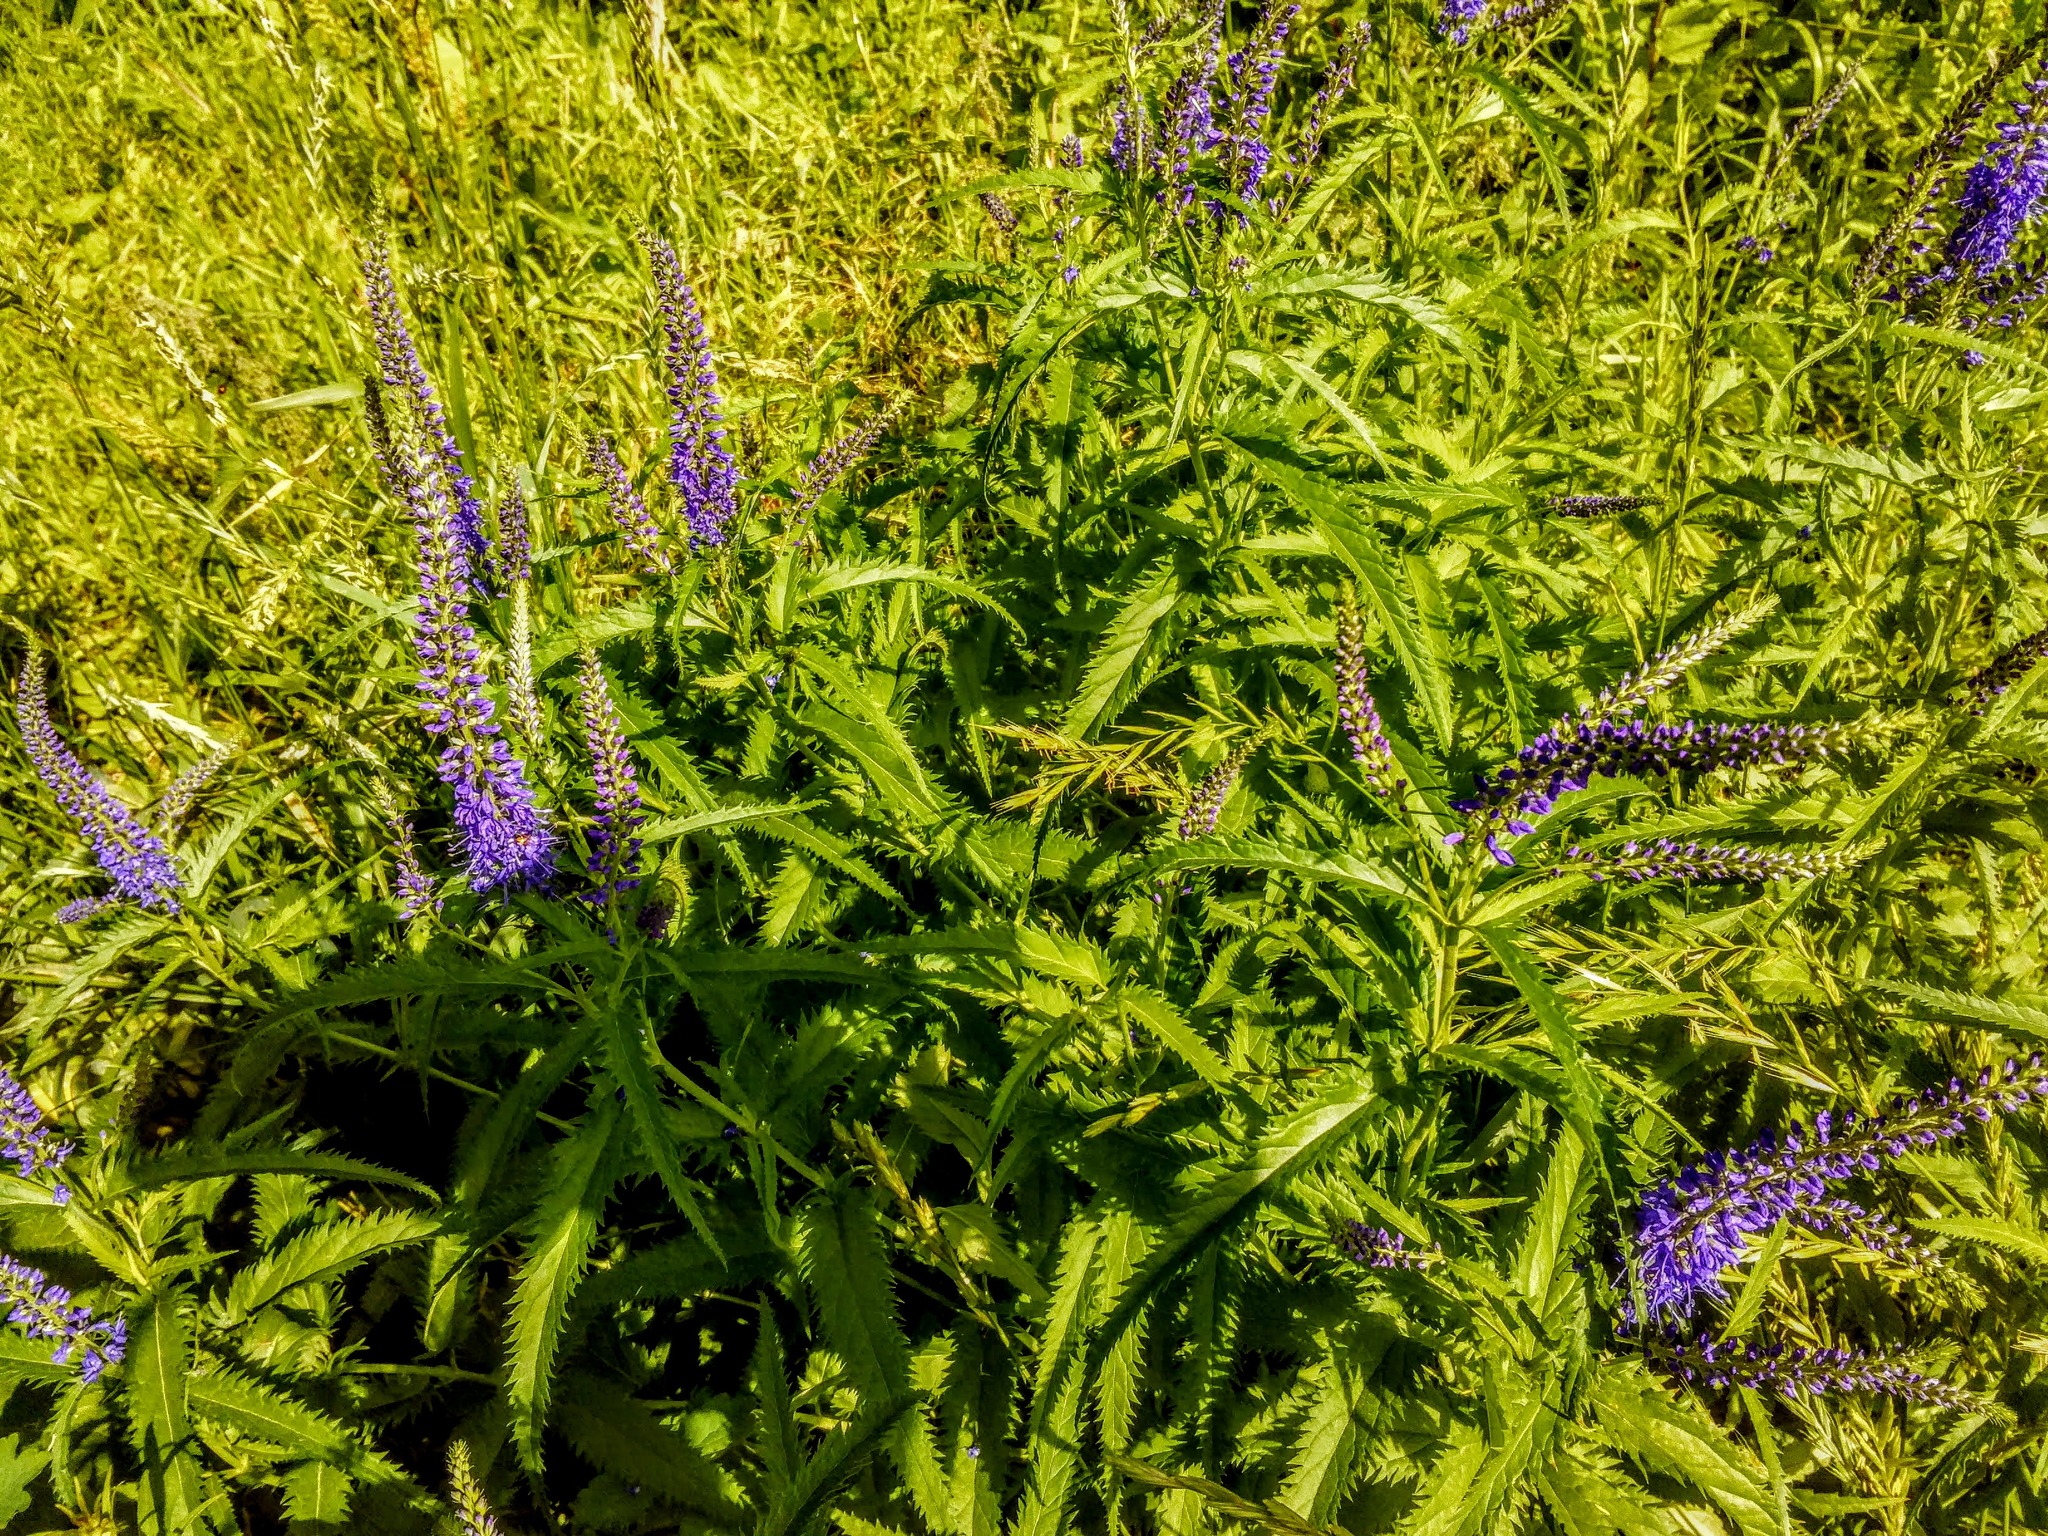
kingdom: Plantae
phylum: Tracheophyta
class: Magnoliopsida
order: Lamiales
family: Plantaginaceae
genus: Veronica
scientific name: Veronica longifolia
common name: Garden speedwell
